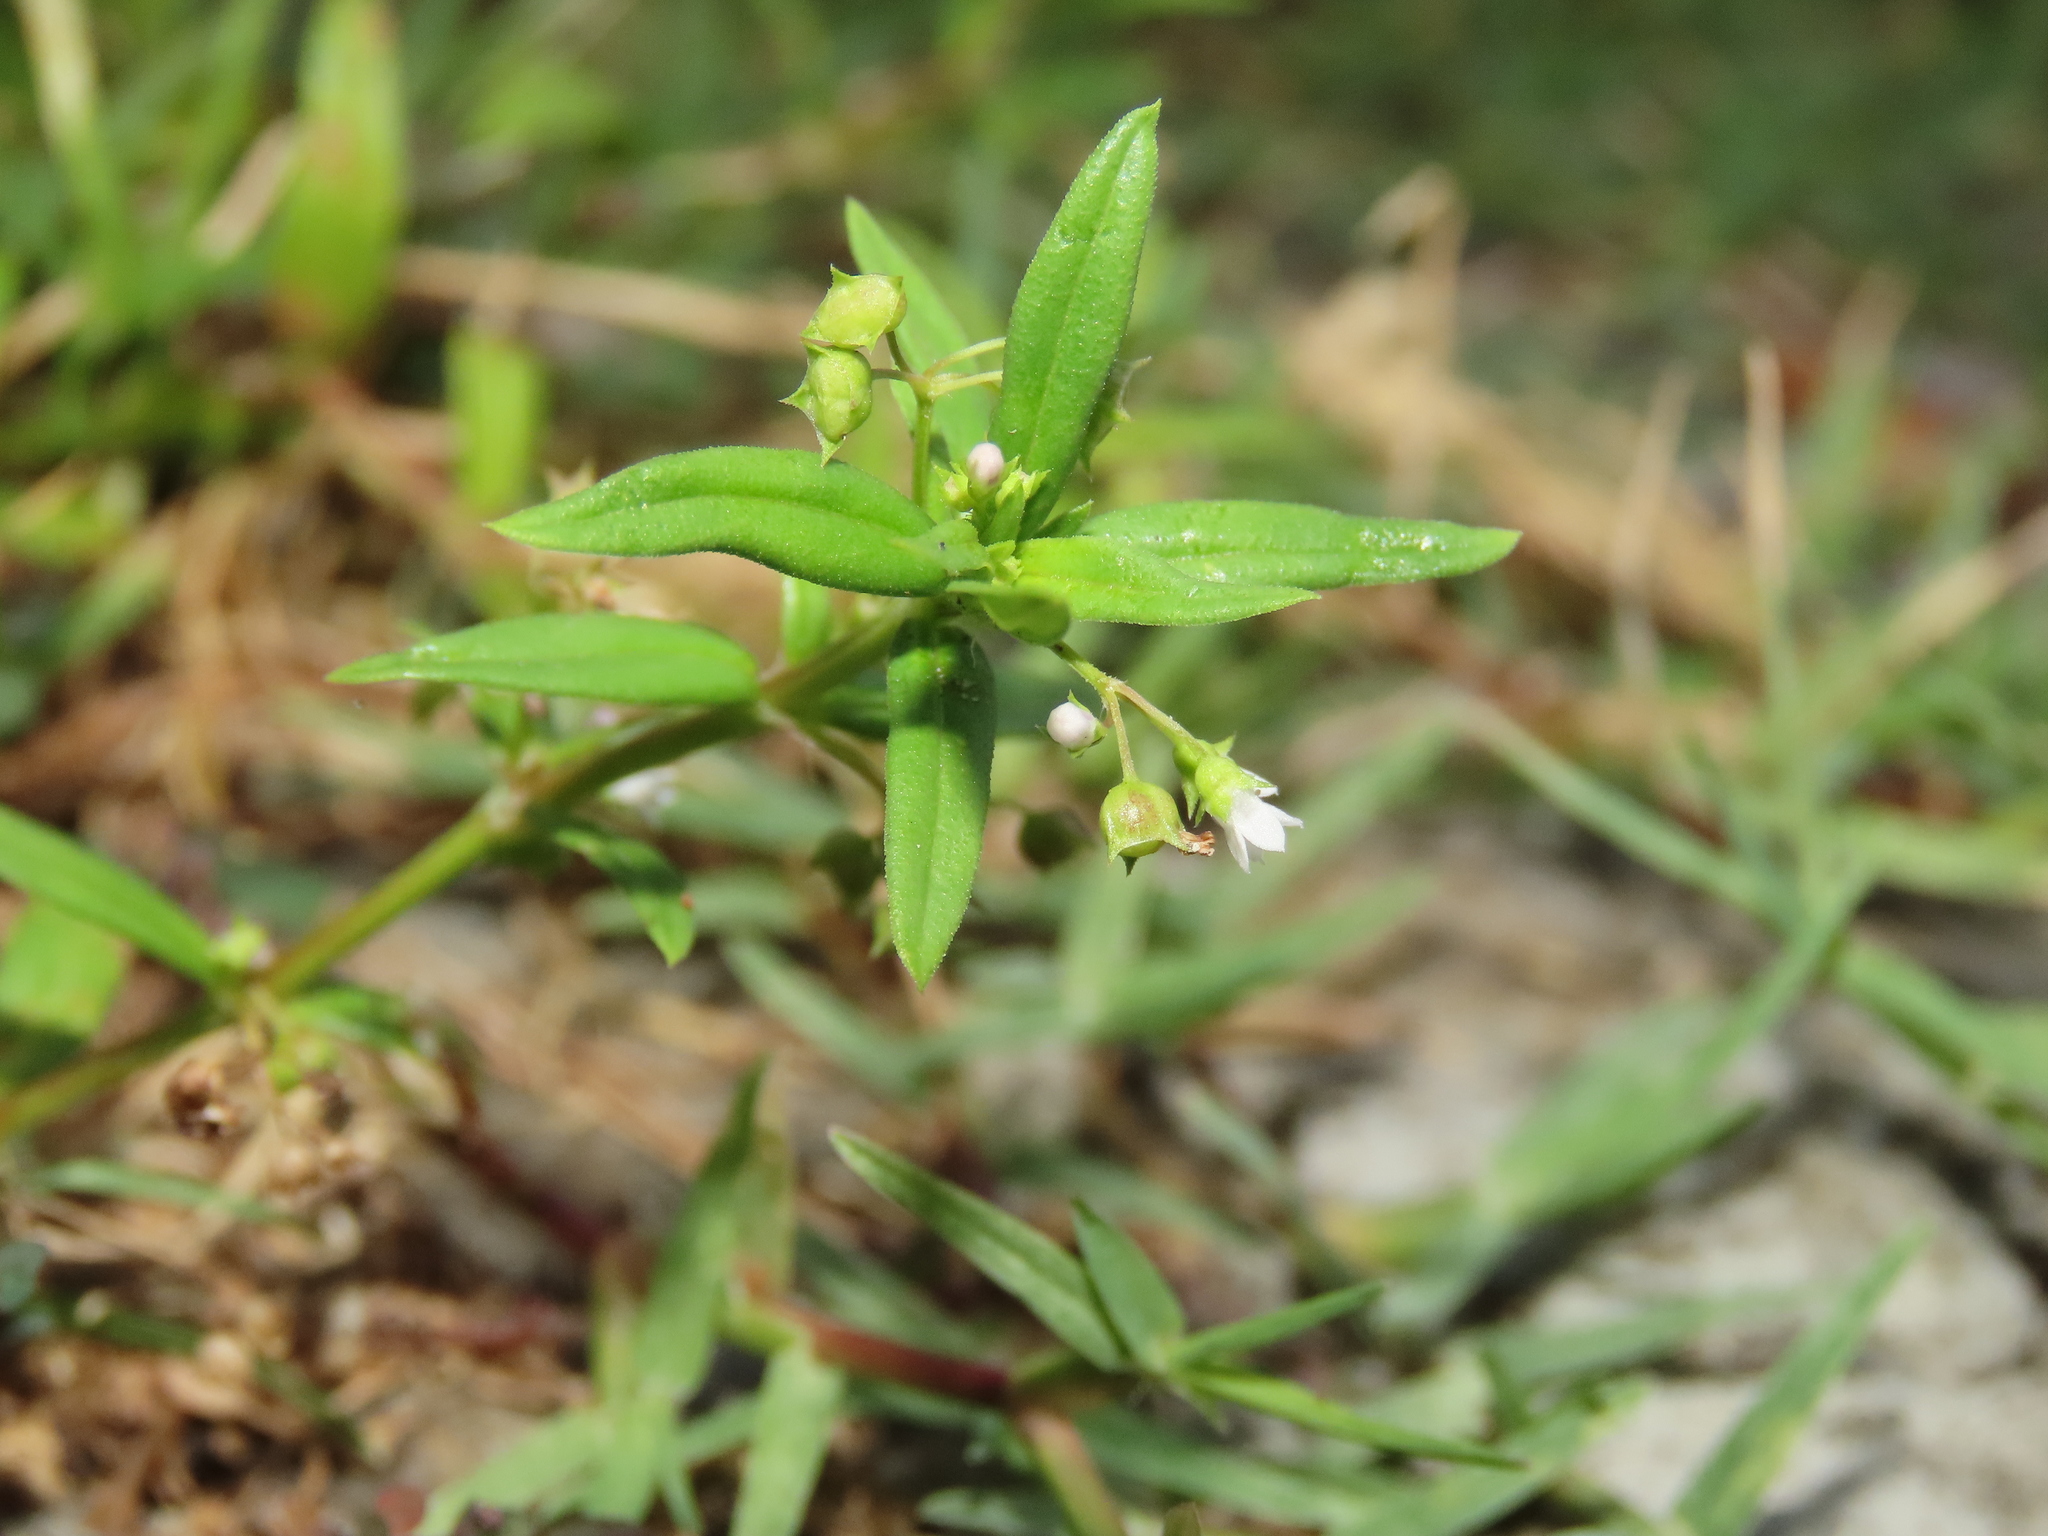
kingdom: Plantae
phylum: Tracheophyta
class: Magnoliopsida
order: Gentianales
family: Rubiaceae
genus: Oldenlandia
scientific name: Oldenlandia corymbosa
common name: Flat-top mille graines
